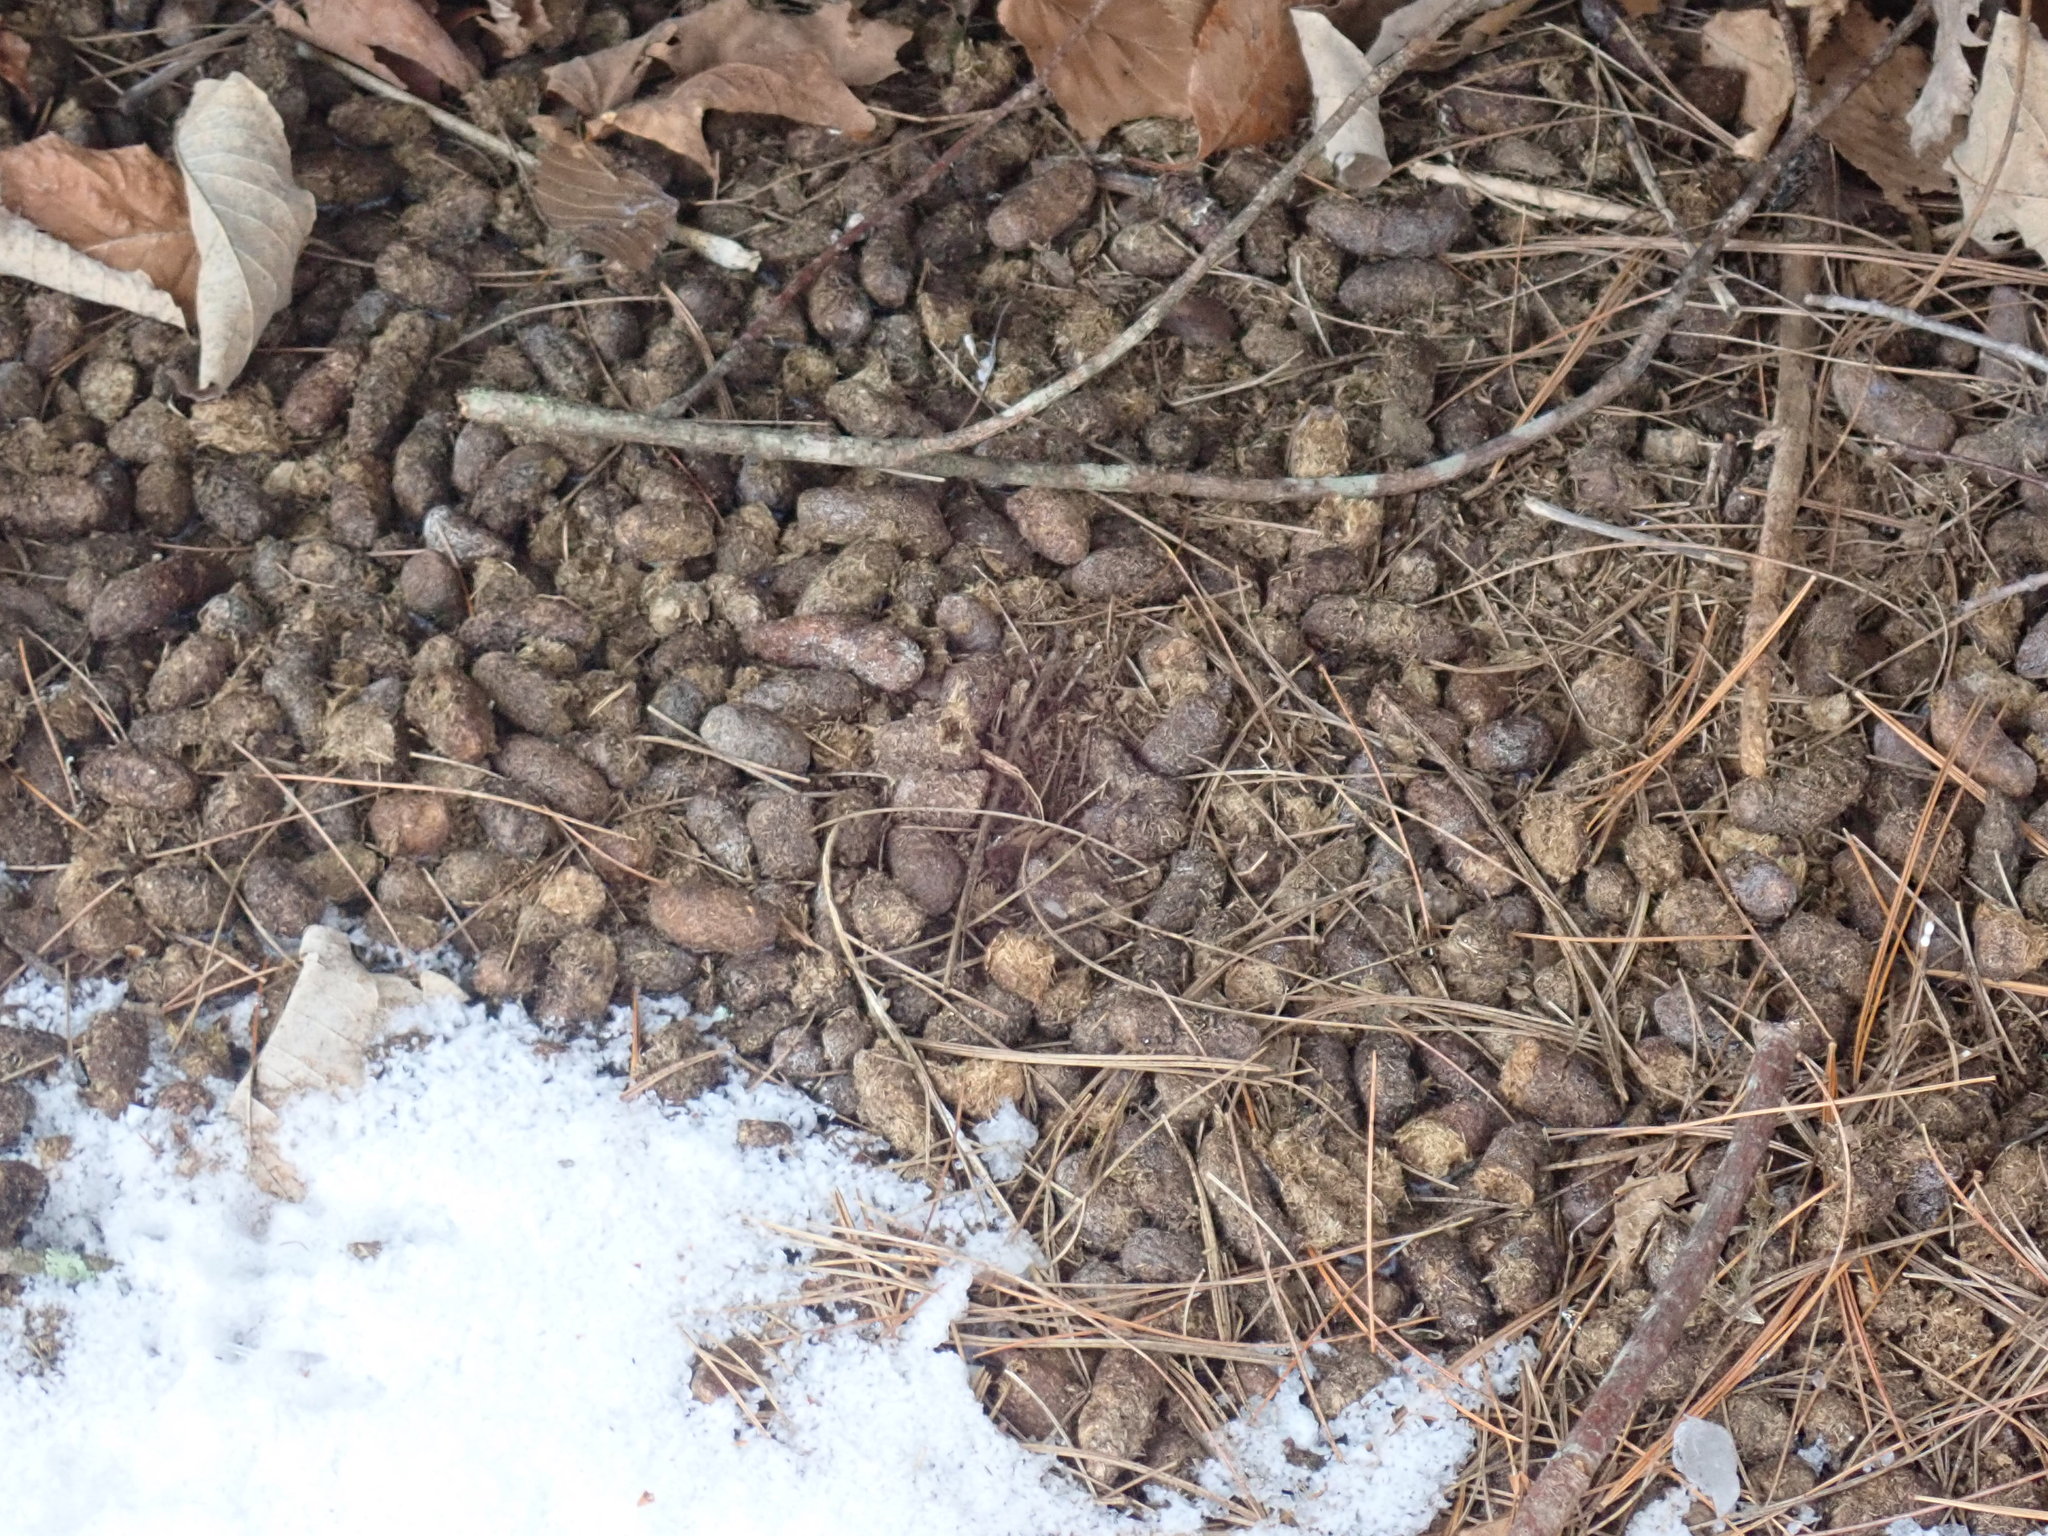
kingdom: Animalia
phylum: Chordata
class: Mammalia
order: Rodentia
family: Erethizontidae
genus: Erethizon
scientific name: Erethizon dorsatus
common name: North american porcupine
